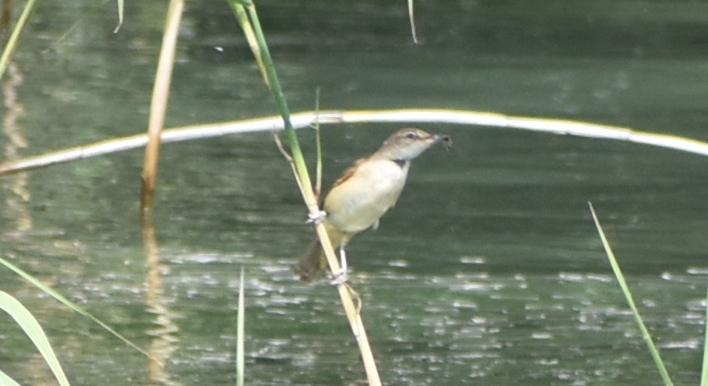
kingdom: Animalia
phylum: Chordata
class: Aves
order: Passeriformes
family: Acrocephalidae
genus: Acrocephalus
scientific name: Acrocephalus arundinaceus
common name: Great reed warbler
